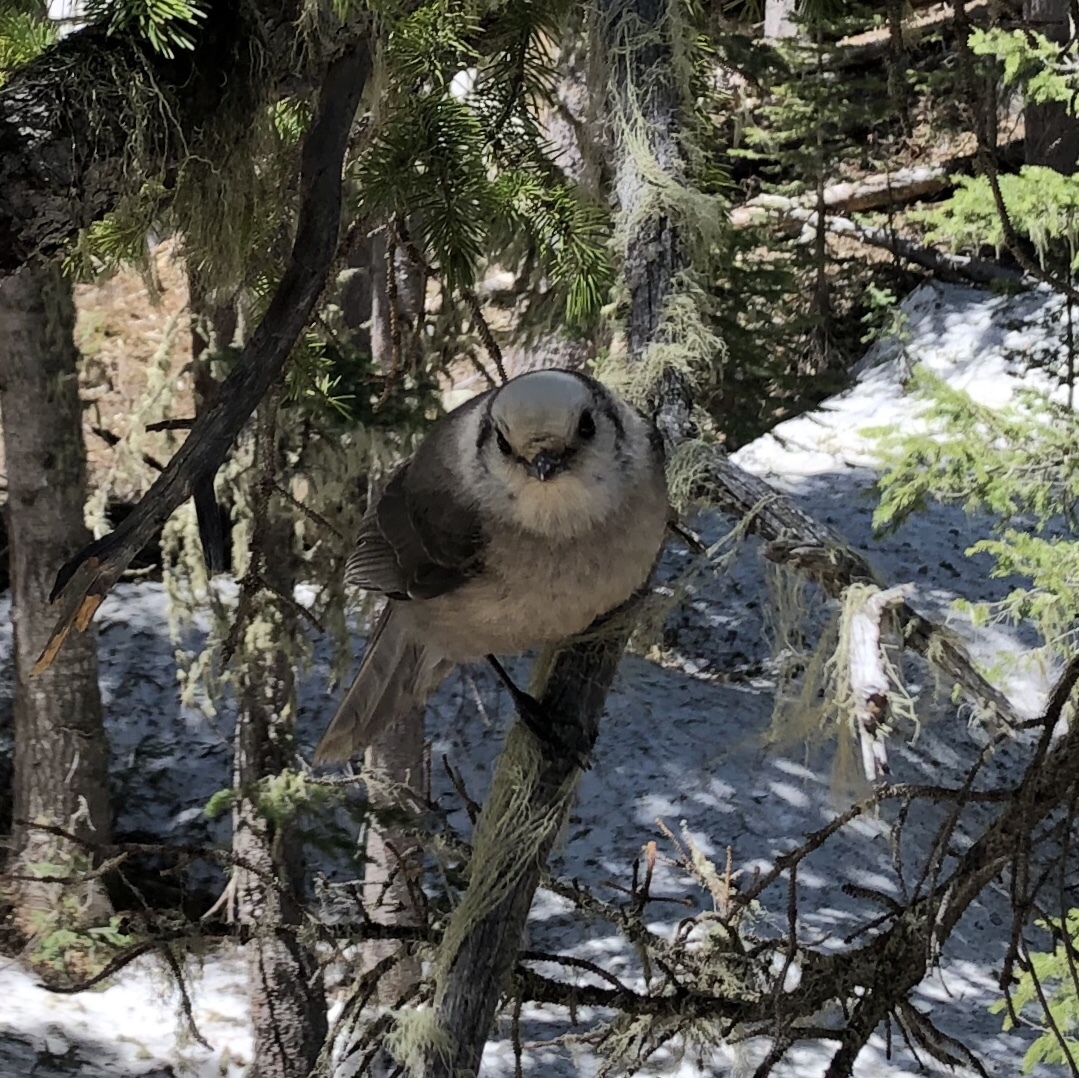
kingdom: Animalia
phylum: Chordata
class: Aves
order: Passeriformes
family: Corvidae
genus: Perisoreus
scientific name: Perisoreus canadensis
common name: Gray jay
